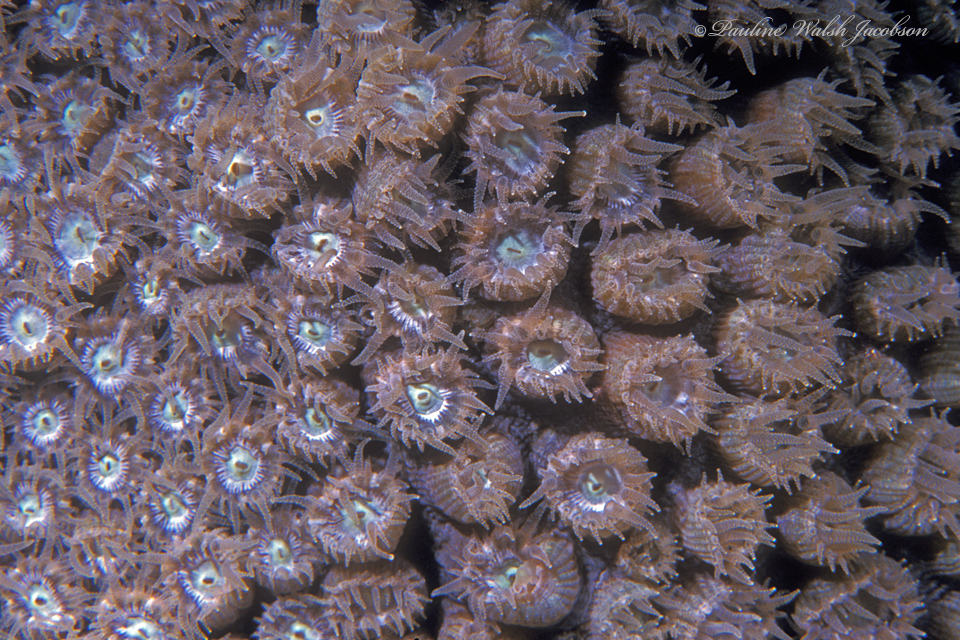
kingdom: Animalia
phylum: Cnidaria
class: Anthozoa
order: Scleractinia
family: Montastraeidae
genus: Montastraea
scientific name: Montastraea cavernosa
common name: Great star coral
